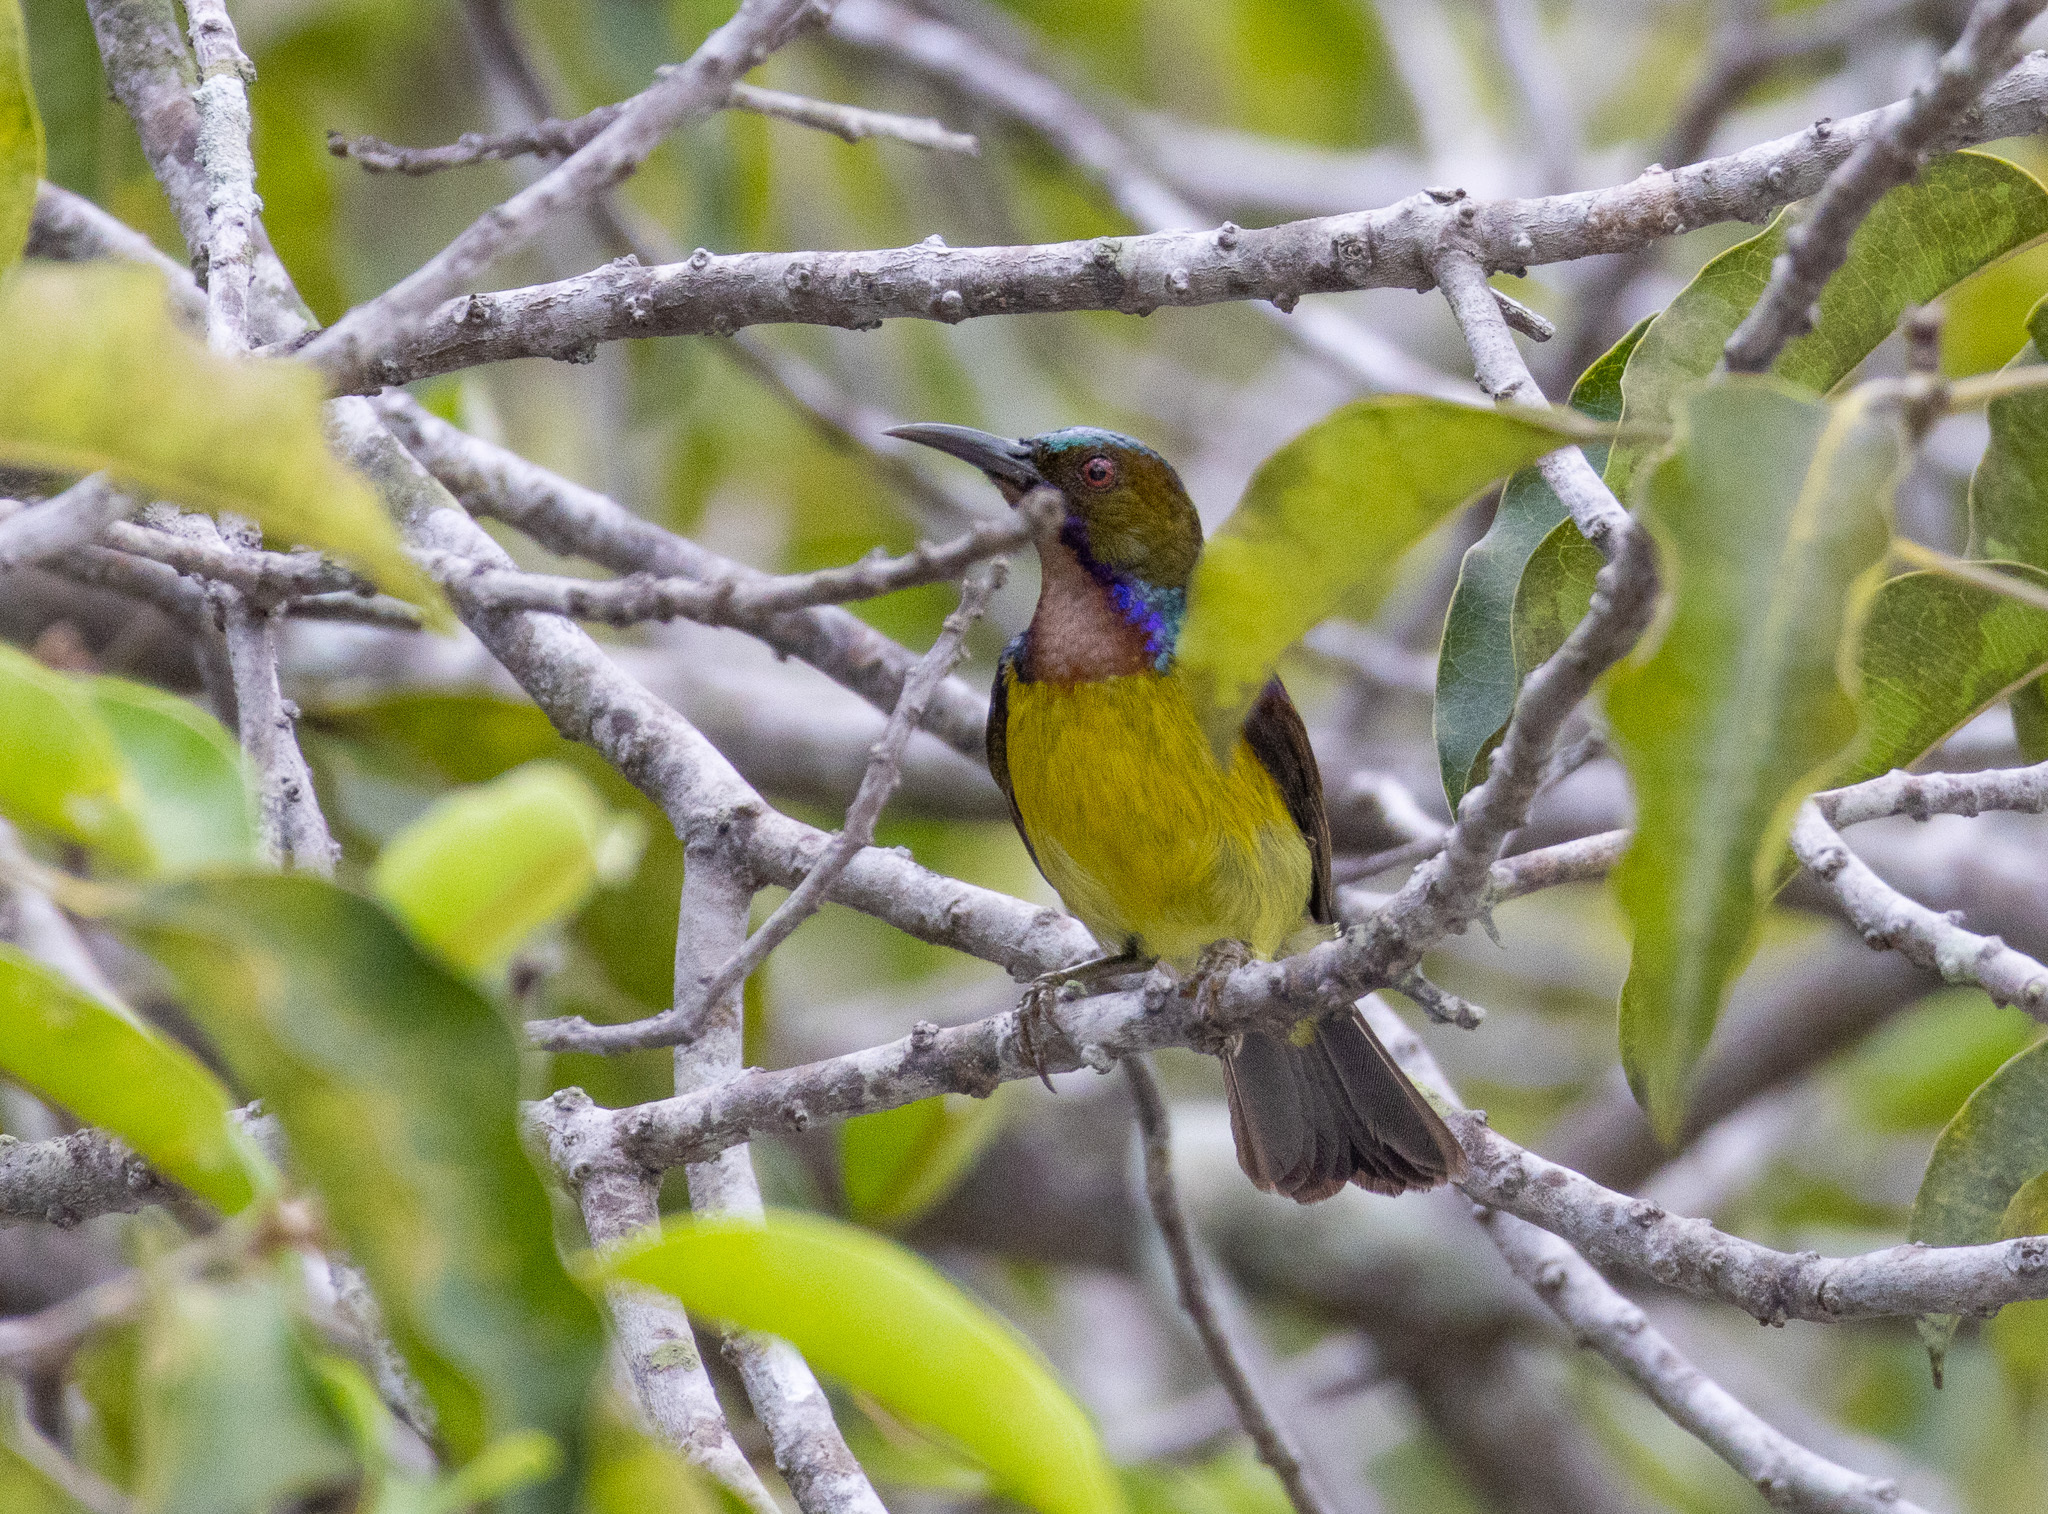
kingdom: Animalia
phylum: Chordata
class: Aves
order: Passeriformes
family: Nectariniidae
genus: Anthreptes
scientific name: Anthreptes malacensis
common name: Brown-throated sunbird
